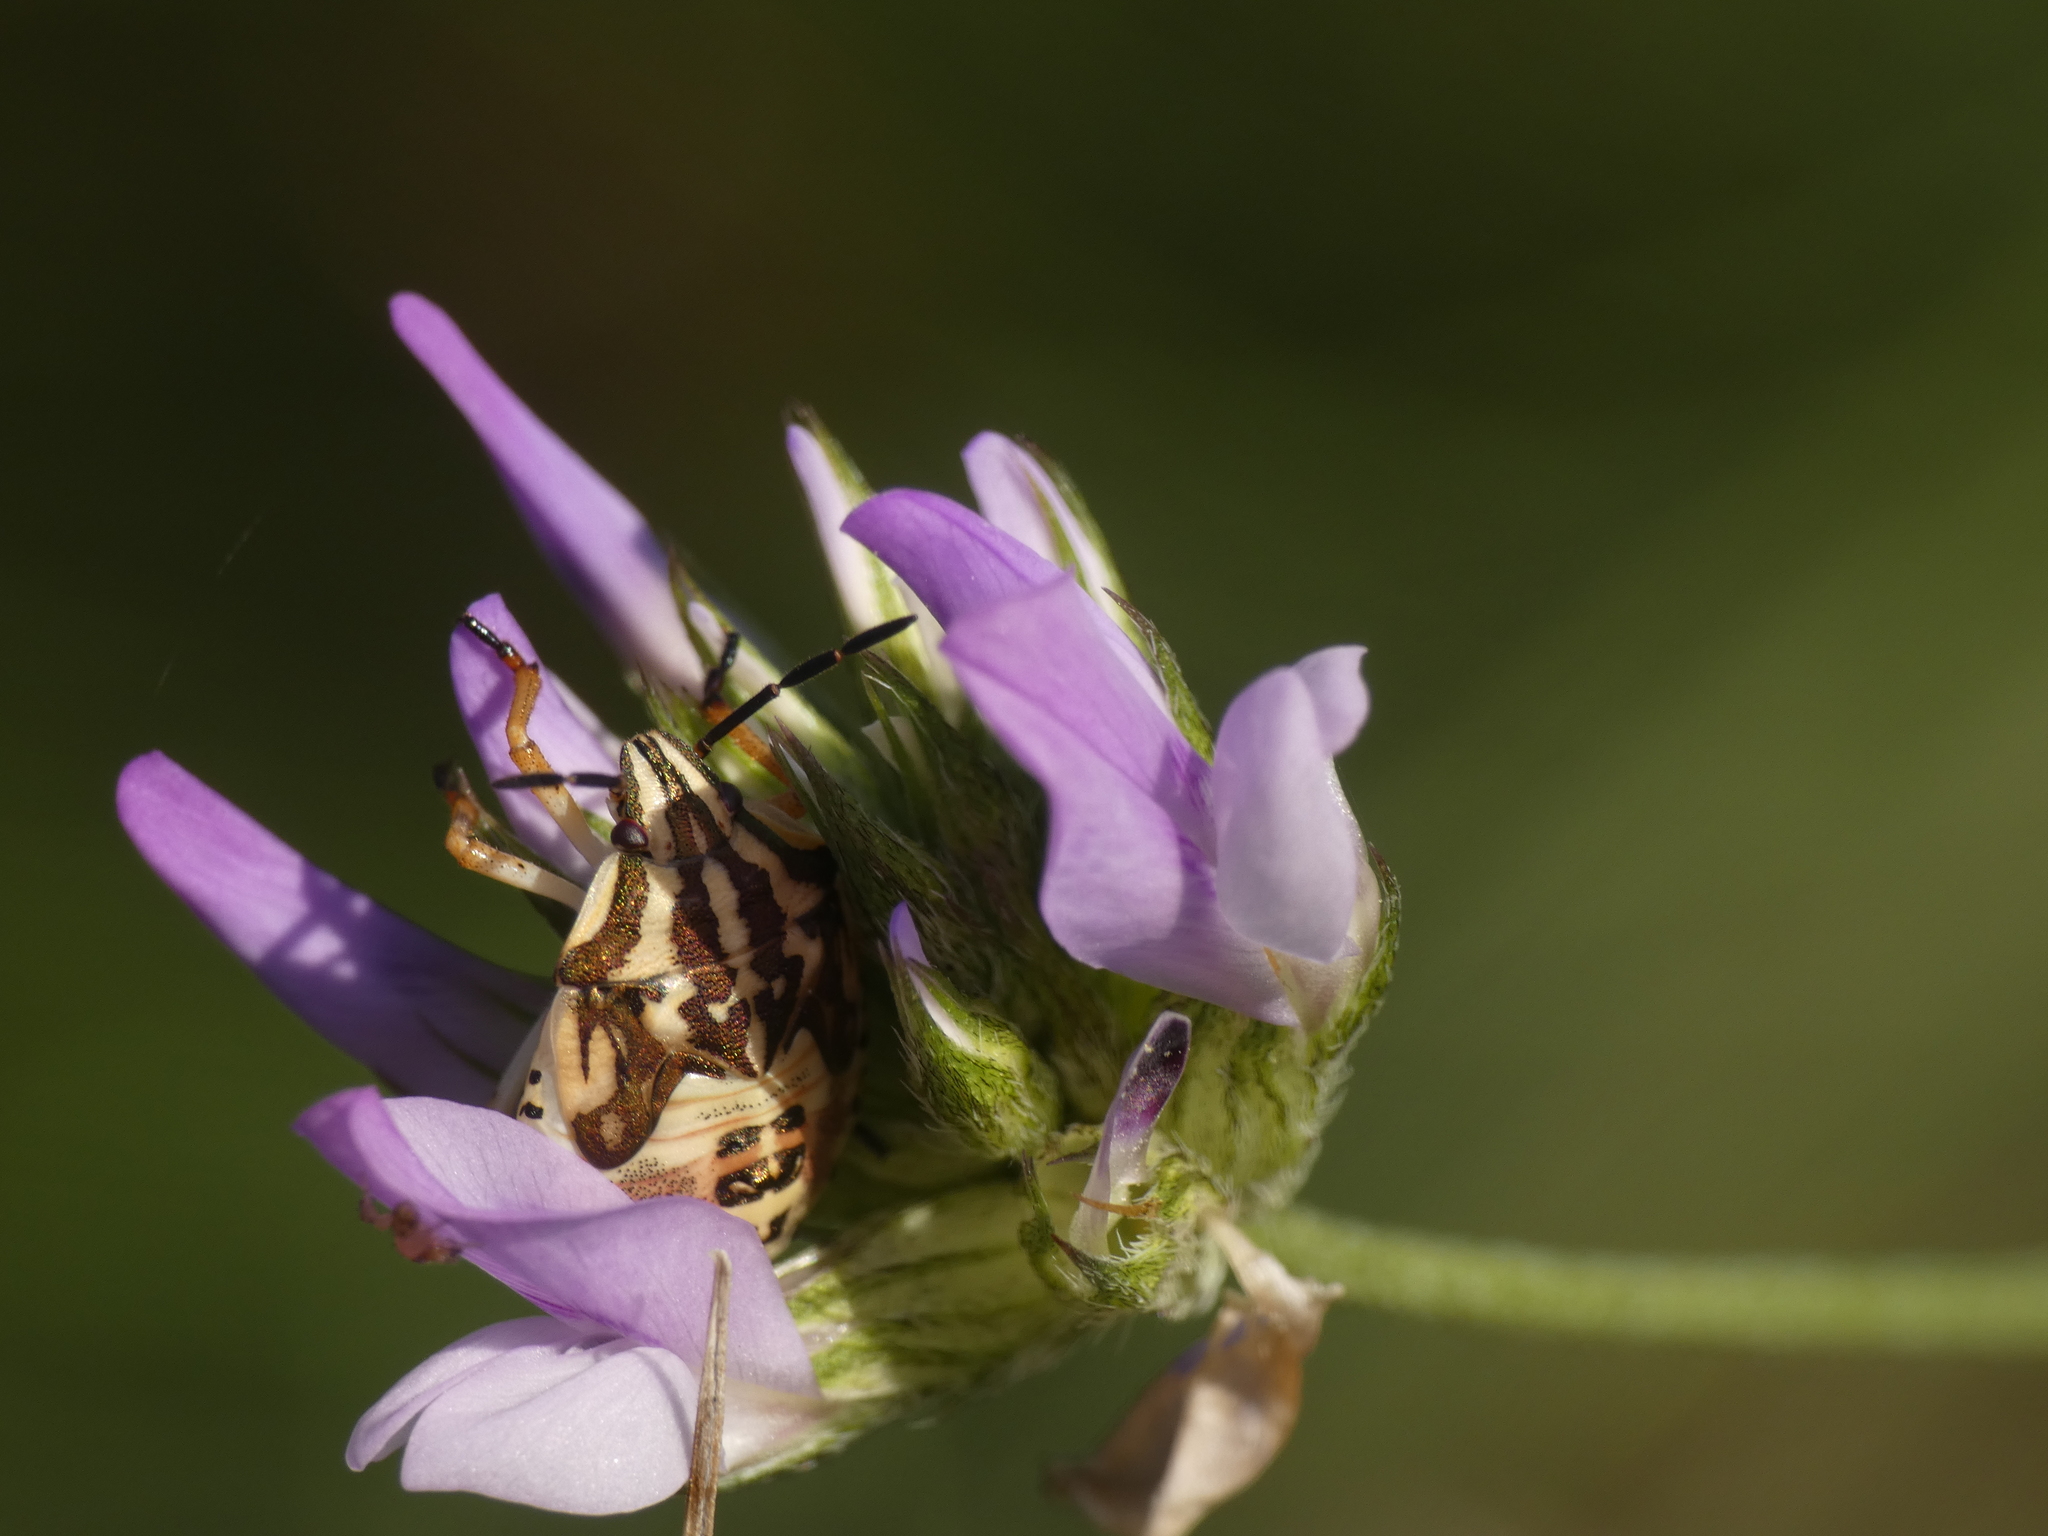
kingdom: Animalia
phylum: Arthropoda
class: Insecta
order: Hemiptera
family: Pentatomidae
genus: Carpocoris
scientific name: Carpocoris purpureipennis
